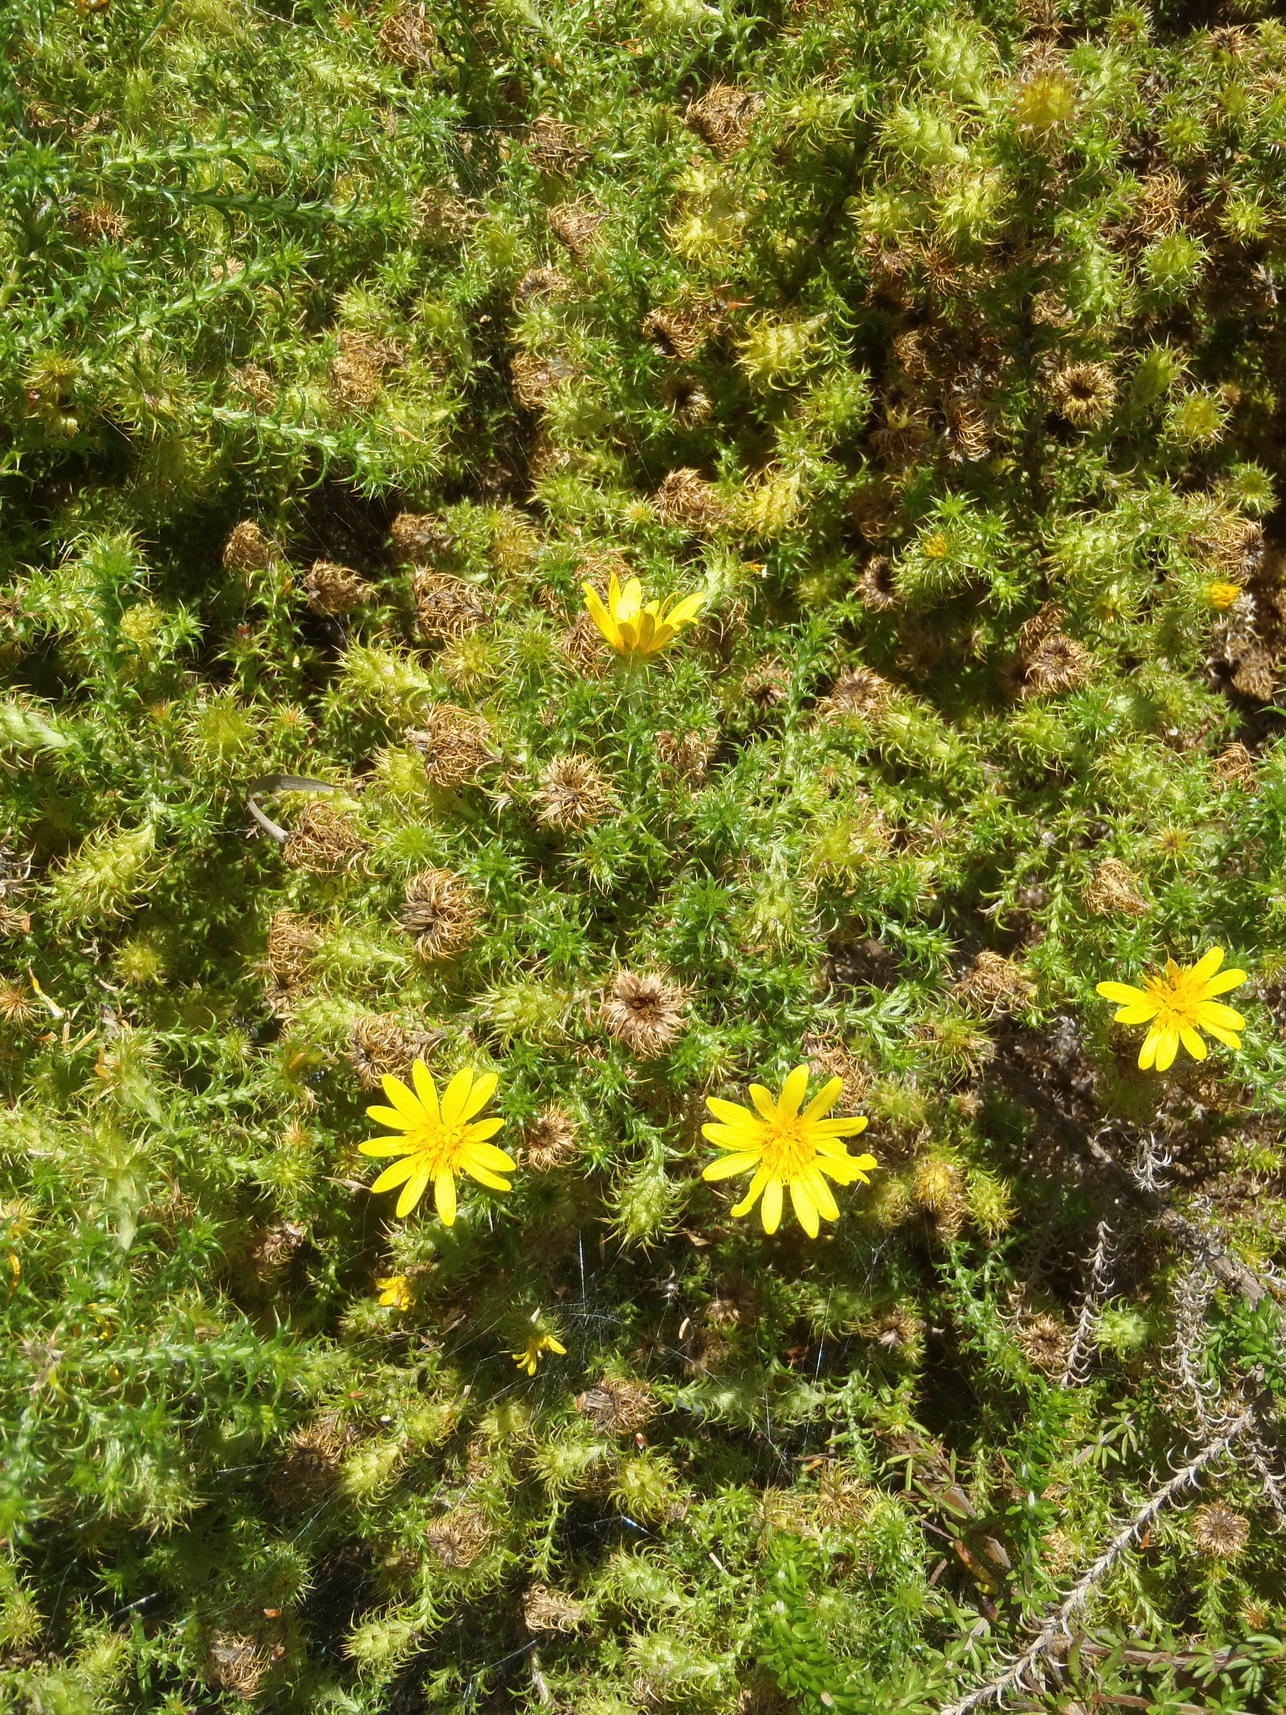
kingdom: Plantae
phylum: Tracheophyta
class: Magnoliopsida
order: Asterales
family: Asteraceae
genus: Cullumia
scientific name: Cullumia decurrens
